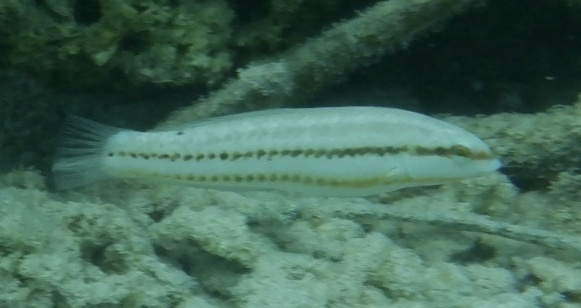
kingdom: Animalia
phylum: Chordata
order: Perciformes
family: Labridae
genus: Halichoeres
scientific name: Halichoeres bivittatus
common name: Slippery dick
